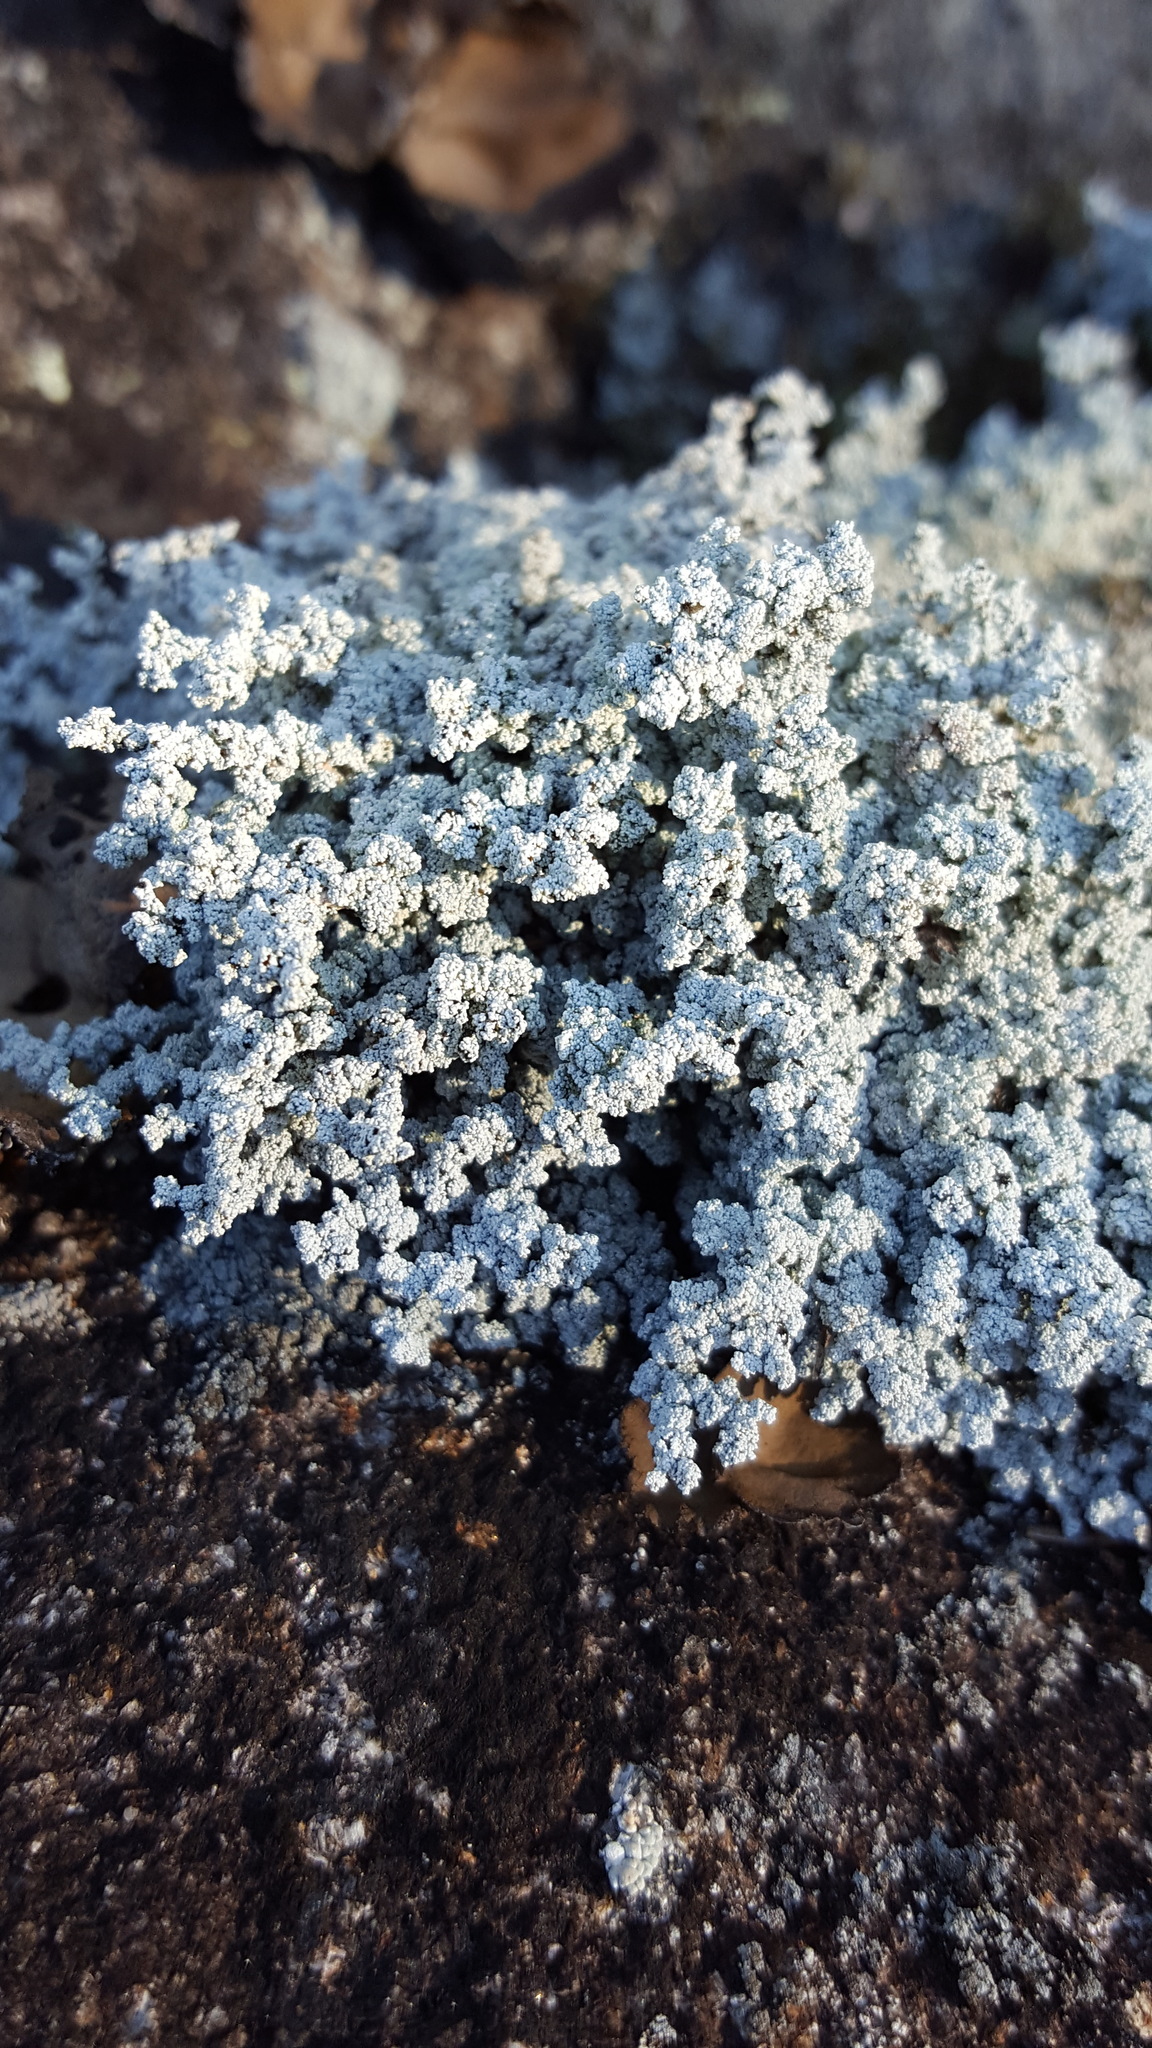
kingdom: Fungi
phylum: Ascomycota
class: Lecanoromycetes
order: Lecanorales
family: Stereocaulaceae
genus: Stereocaulon
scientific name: Stereocaulon saxatile
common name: Rock foam
